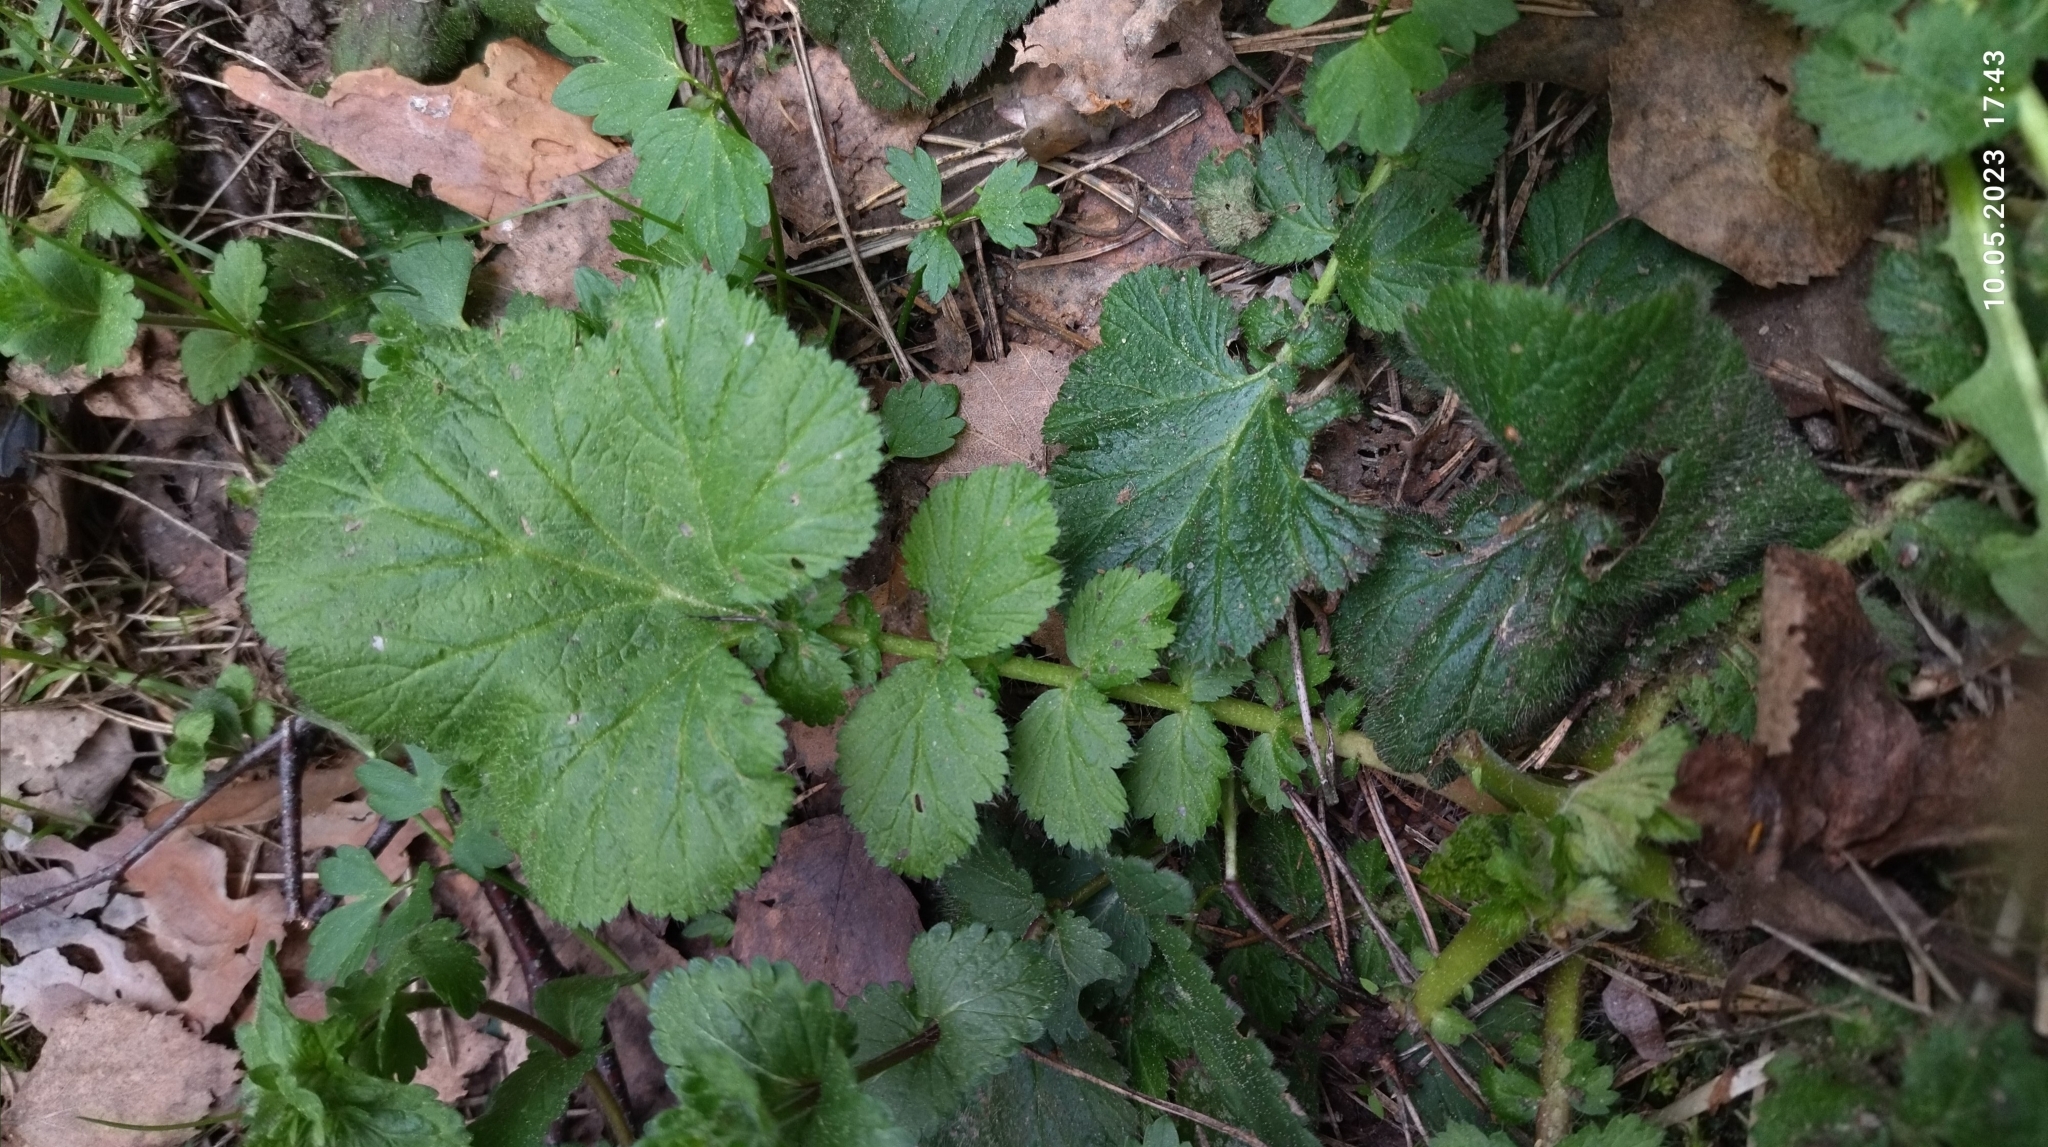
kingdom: Plantae
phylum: Tracheophyta
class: Magnoliopsida
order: Rosales
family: Rosaceae
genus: Geum
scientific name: Geum macrophyllum
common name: Large-leaved avens
